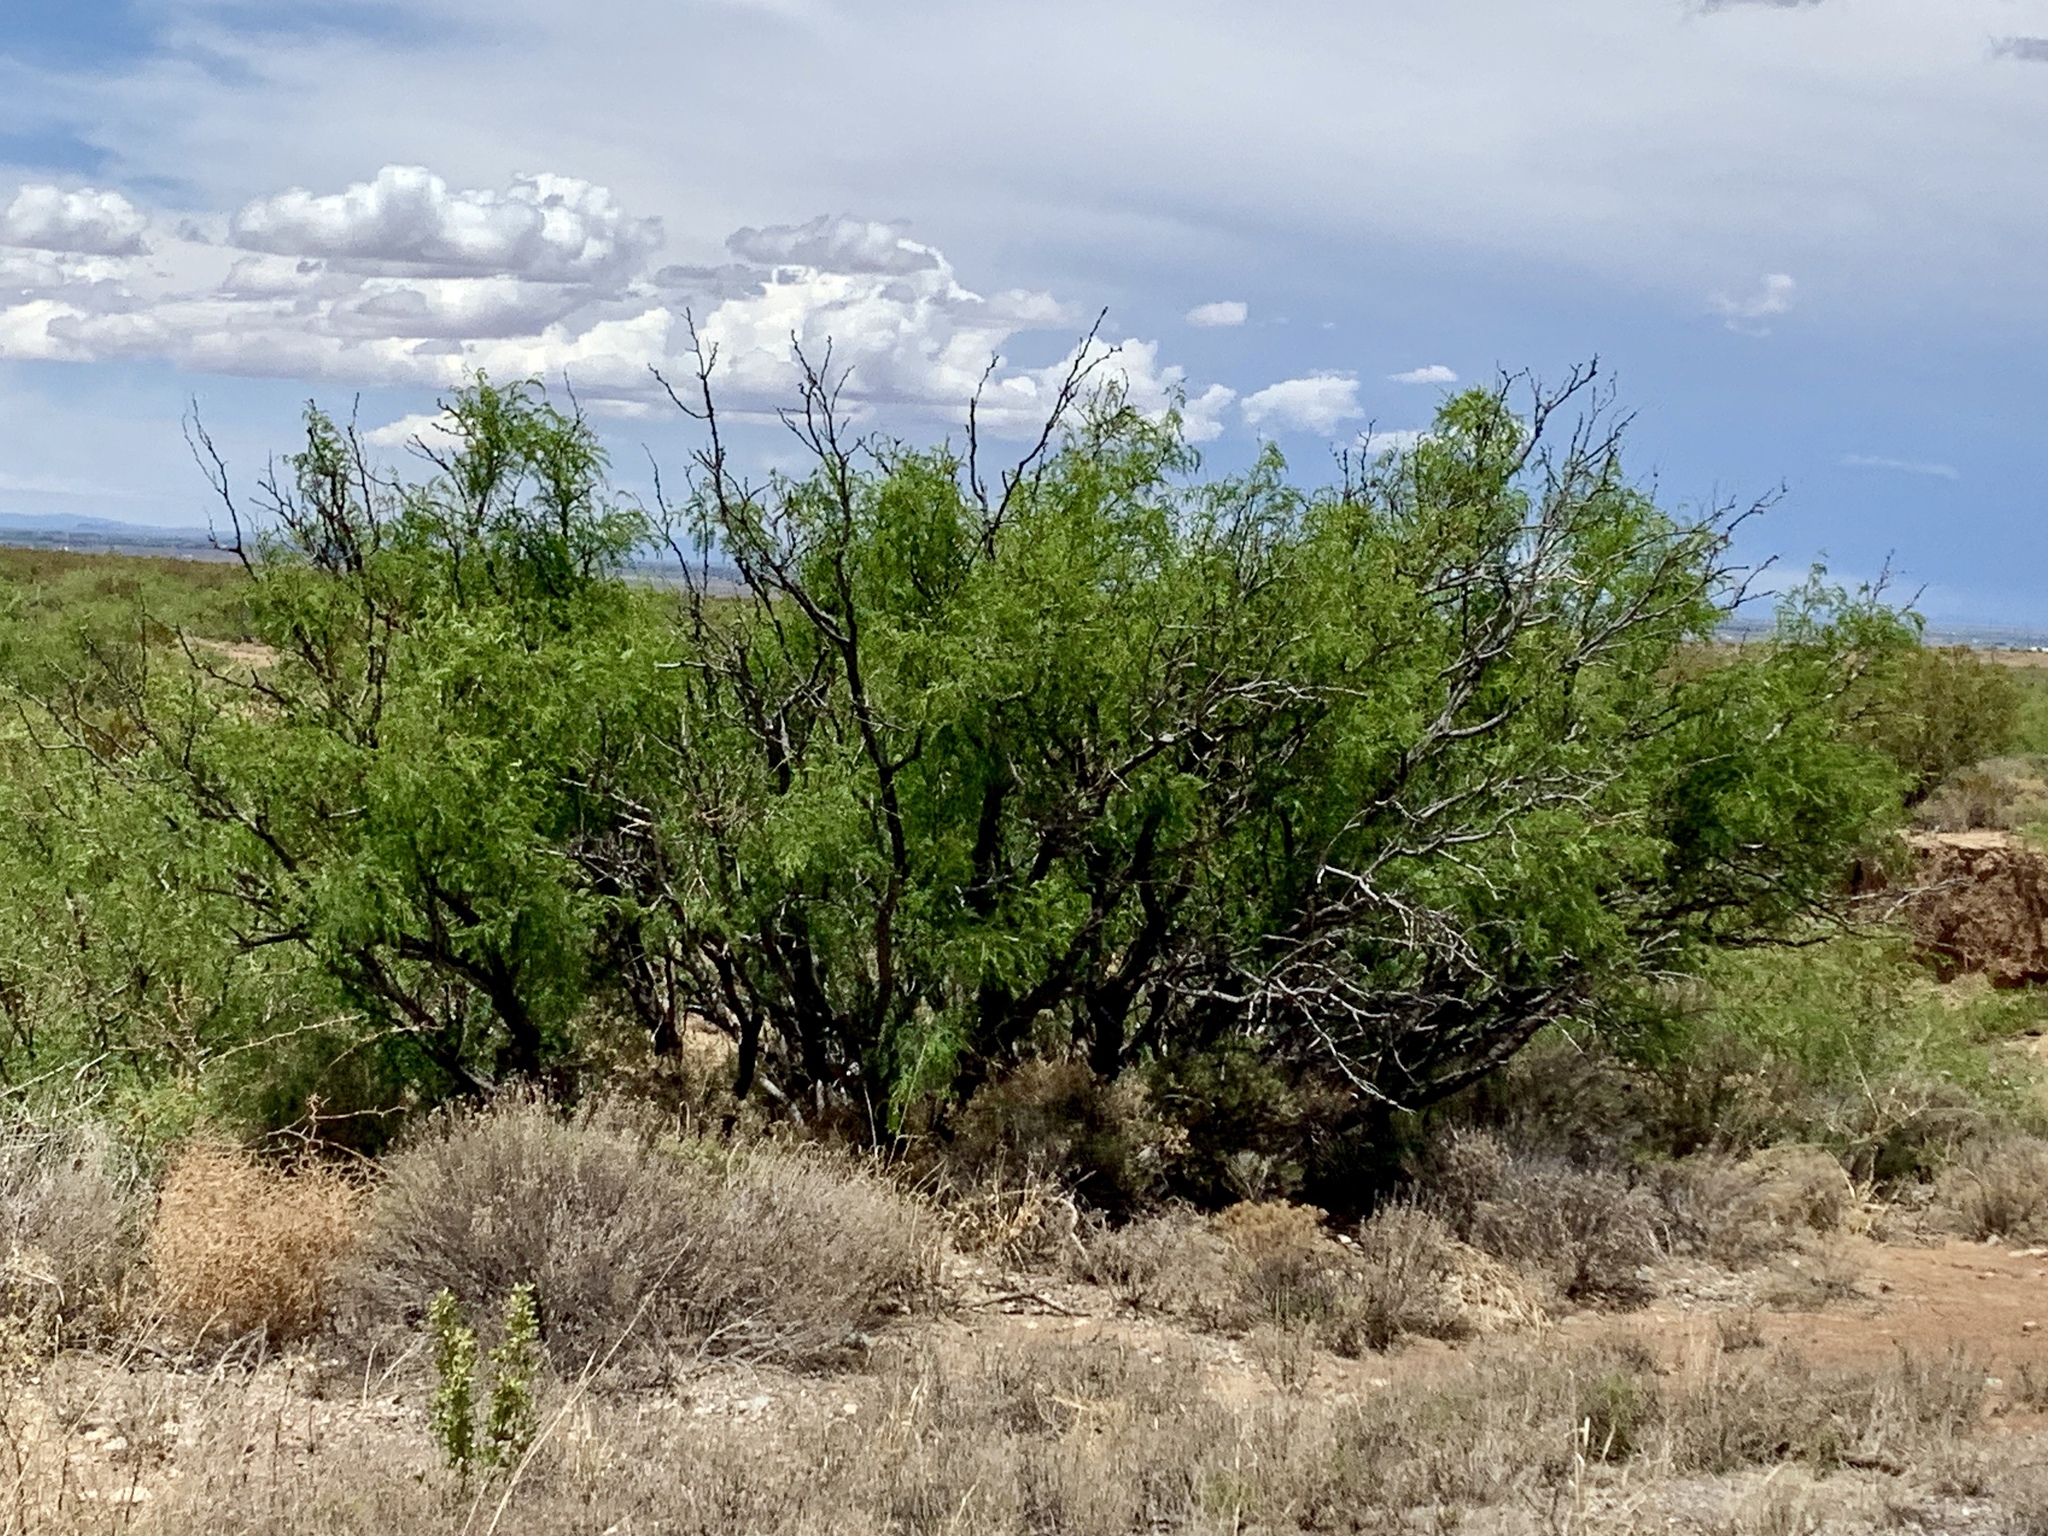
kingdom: Plantae
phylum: Tracheophyta
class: Magnoliopsida
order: Fabales
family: Fabaceae
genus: Prosopis
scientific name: Prosopis glandulosa
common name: Honey mesquite
